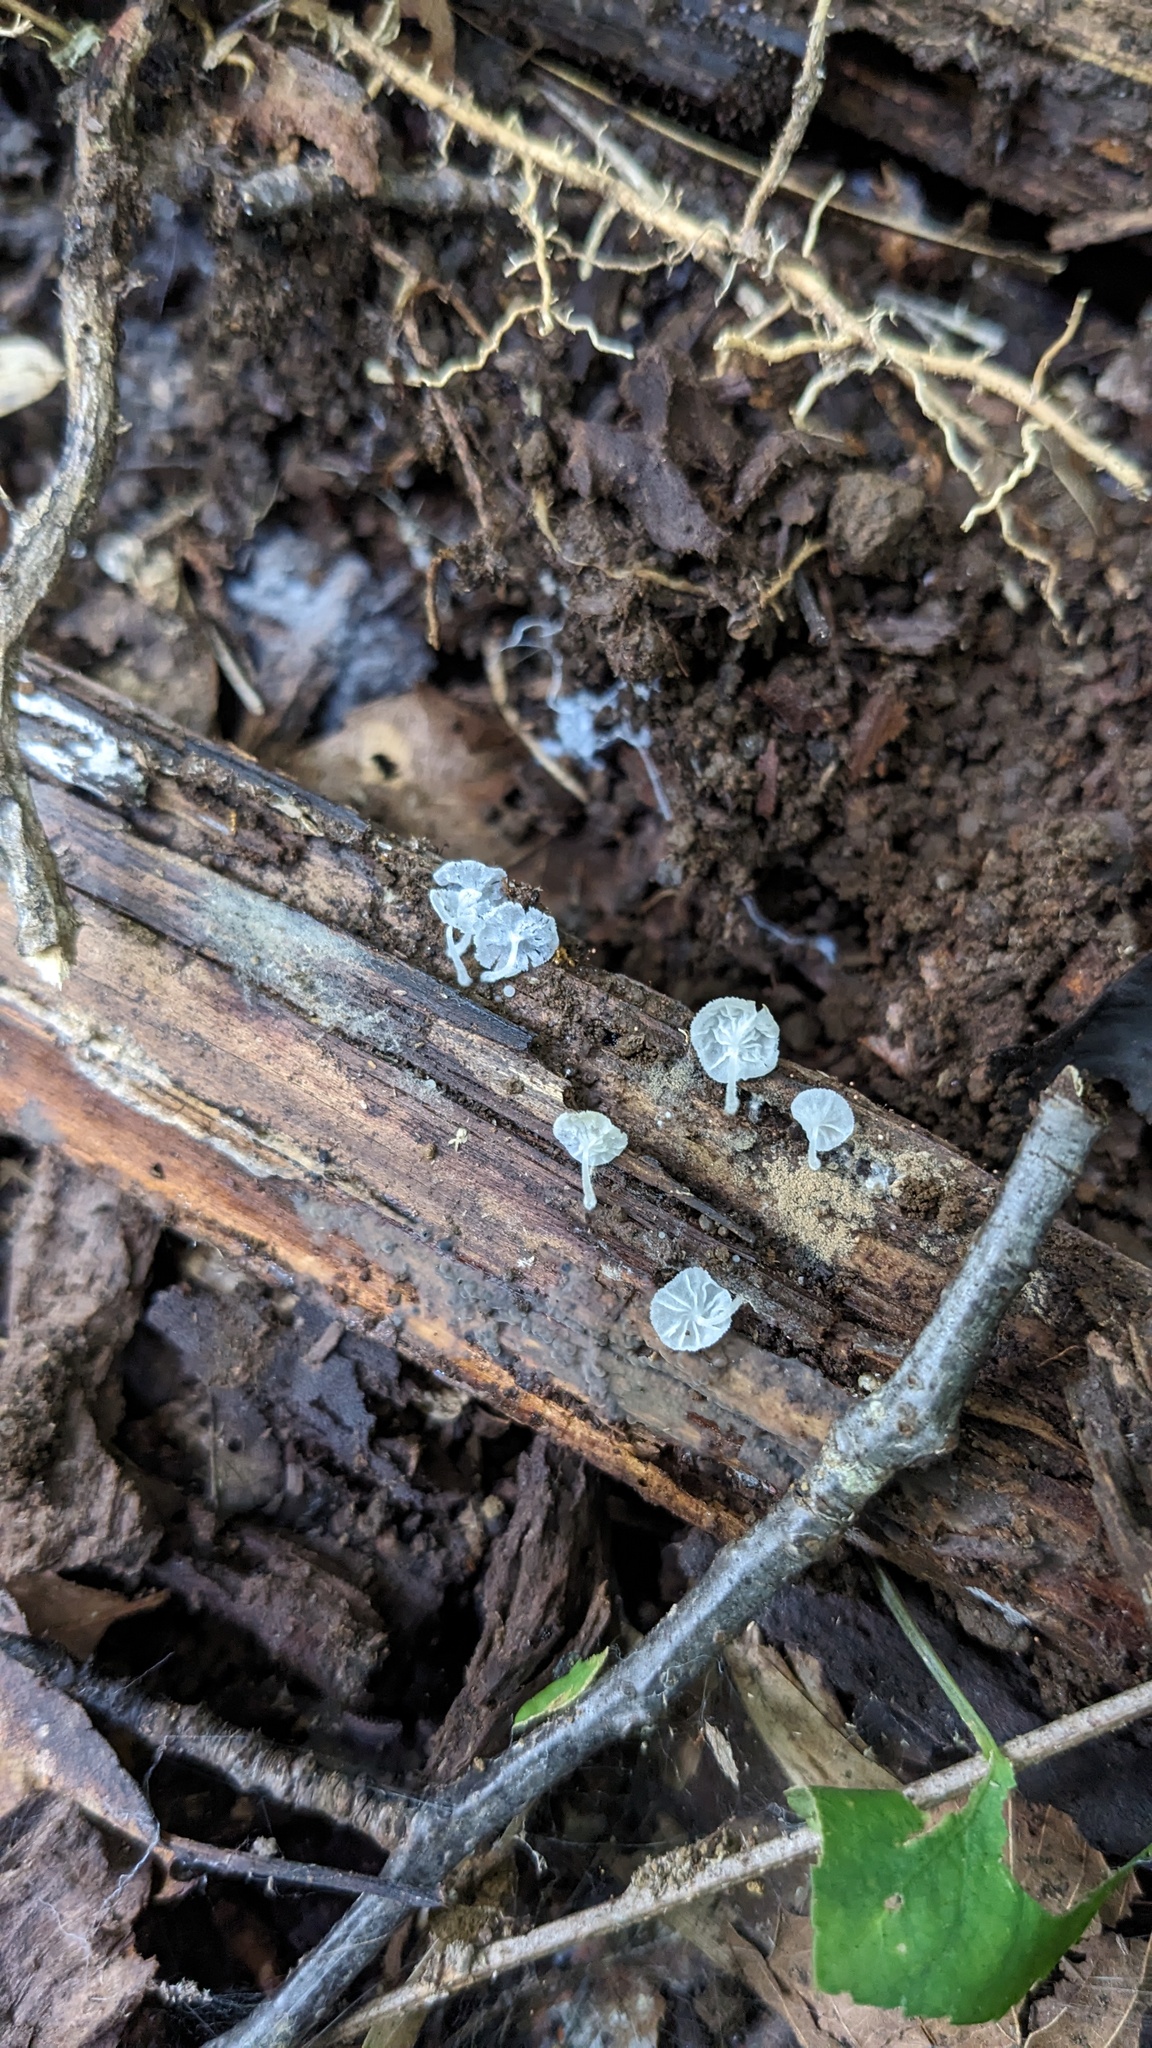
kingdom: Fungi
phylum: Basidiomycota
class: Agaricomycetes
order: Agaricales
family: Tricholomataceae
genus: Delicatula
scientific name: Delicatula integrella
